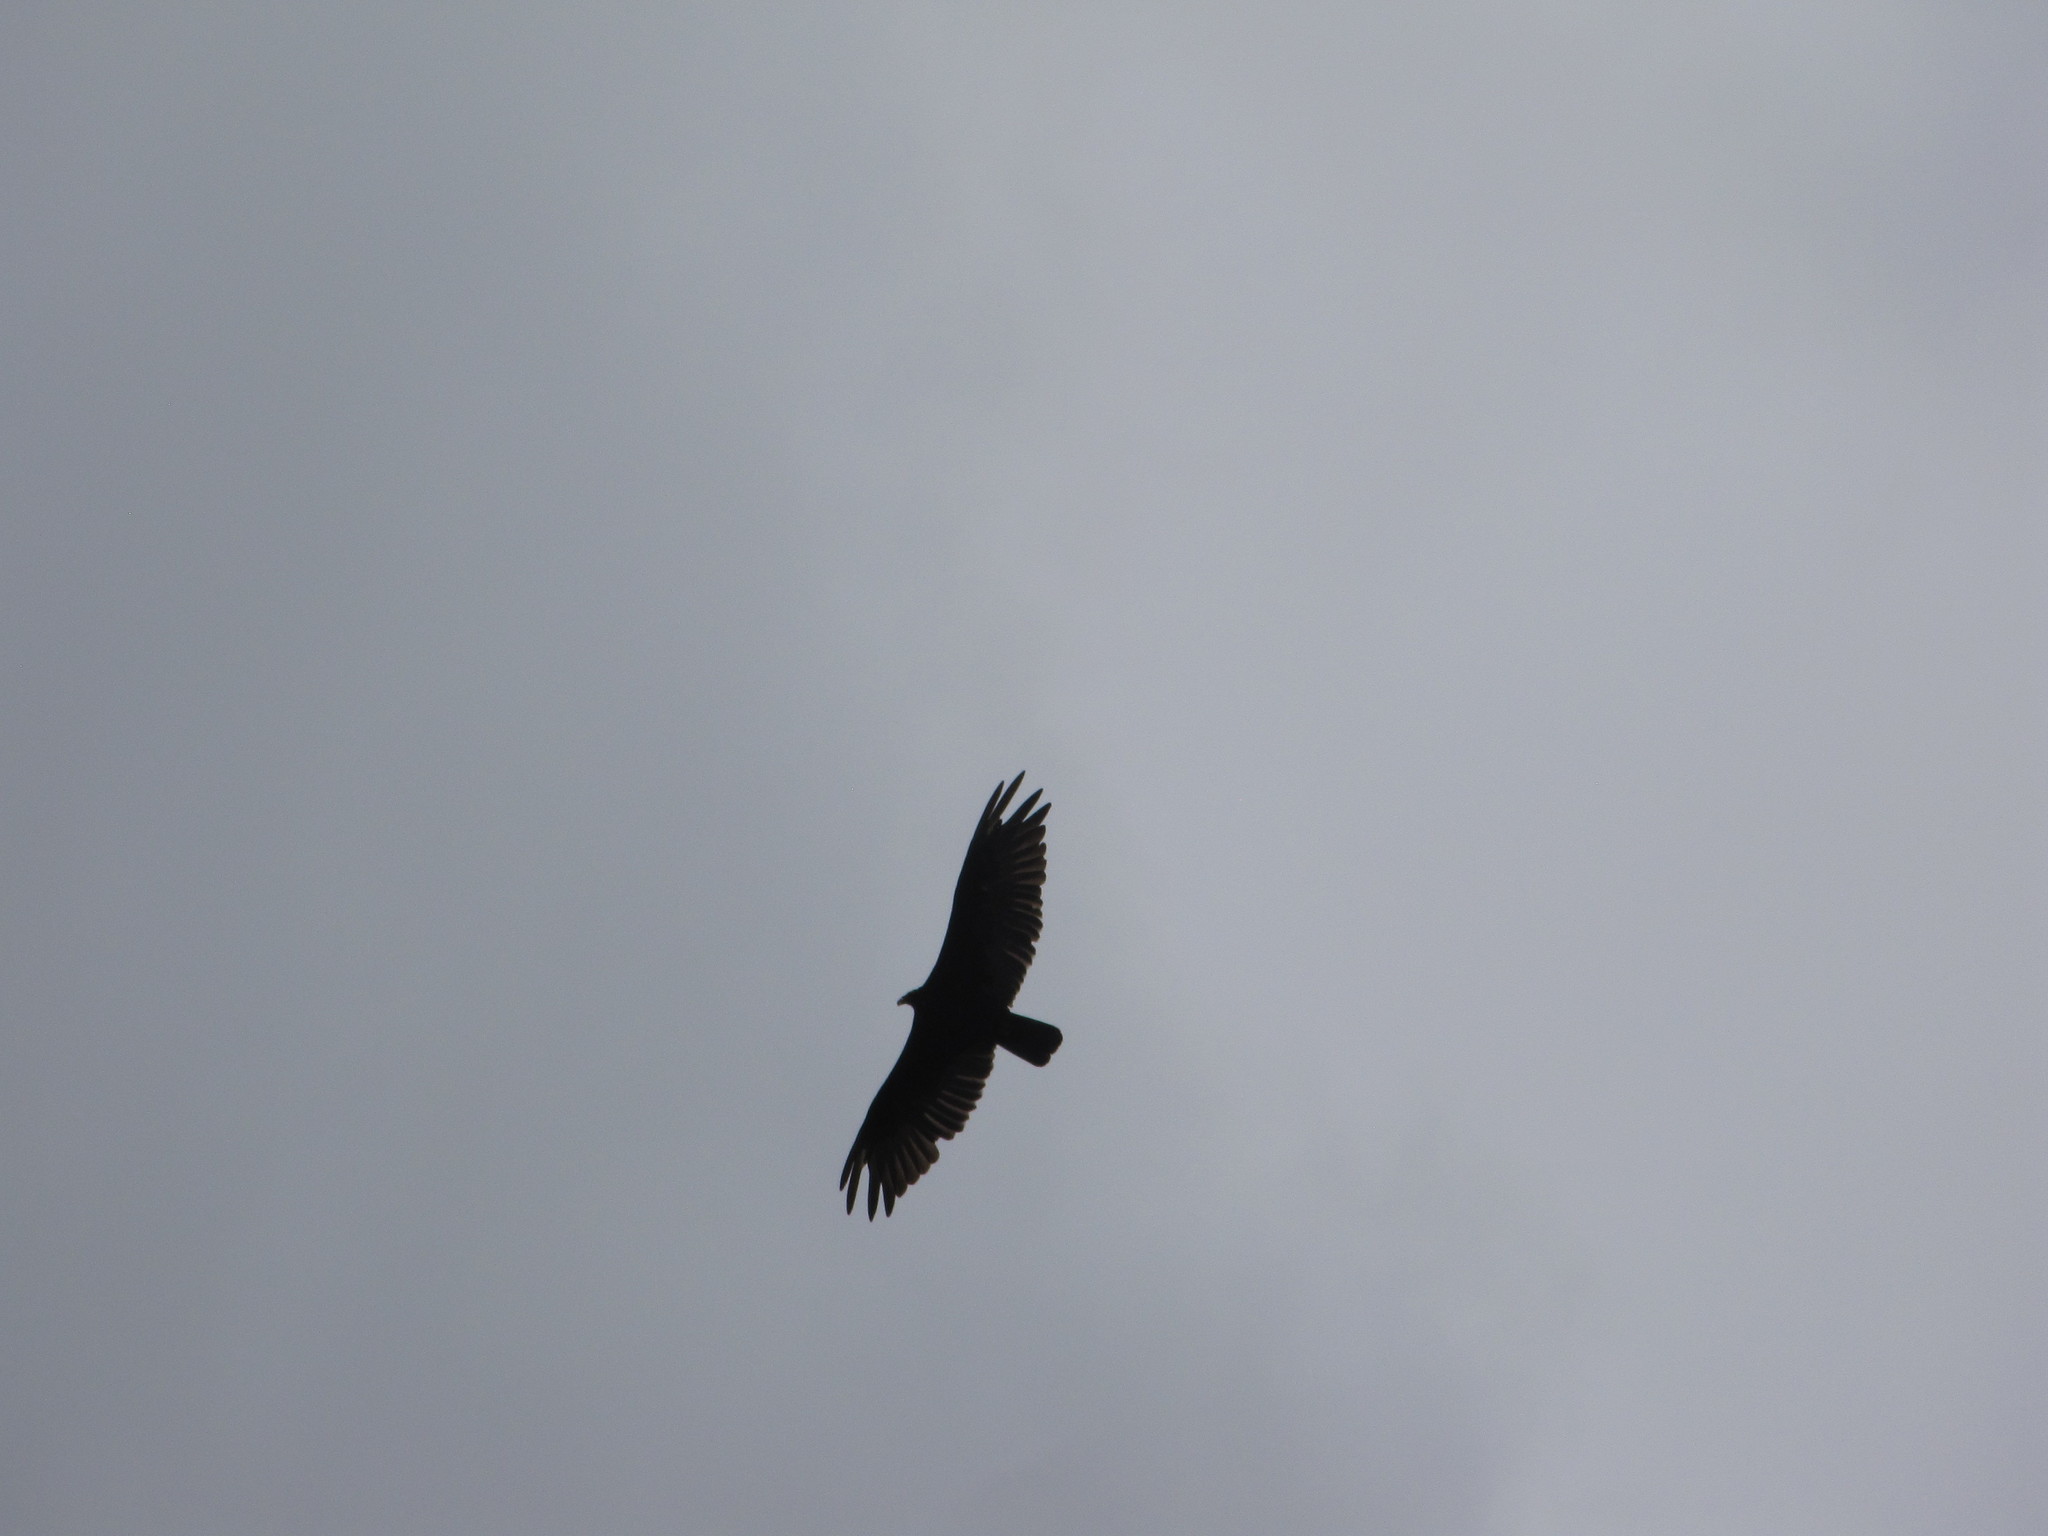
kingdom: Animalia
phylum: Chordata
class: Aves
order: Accipitriformes
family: Cathartidae
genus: Cathartes
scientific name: Cathartes aura
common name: Turkey vulture
